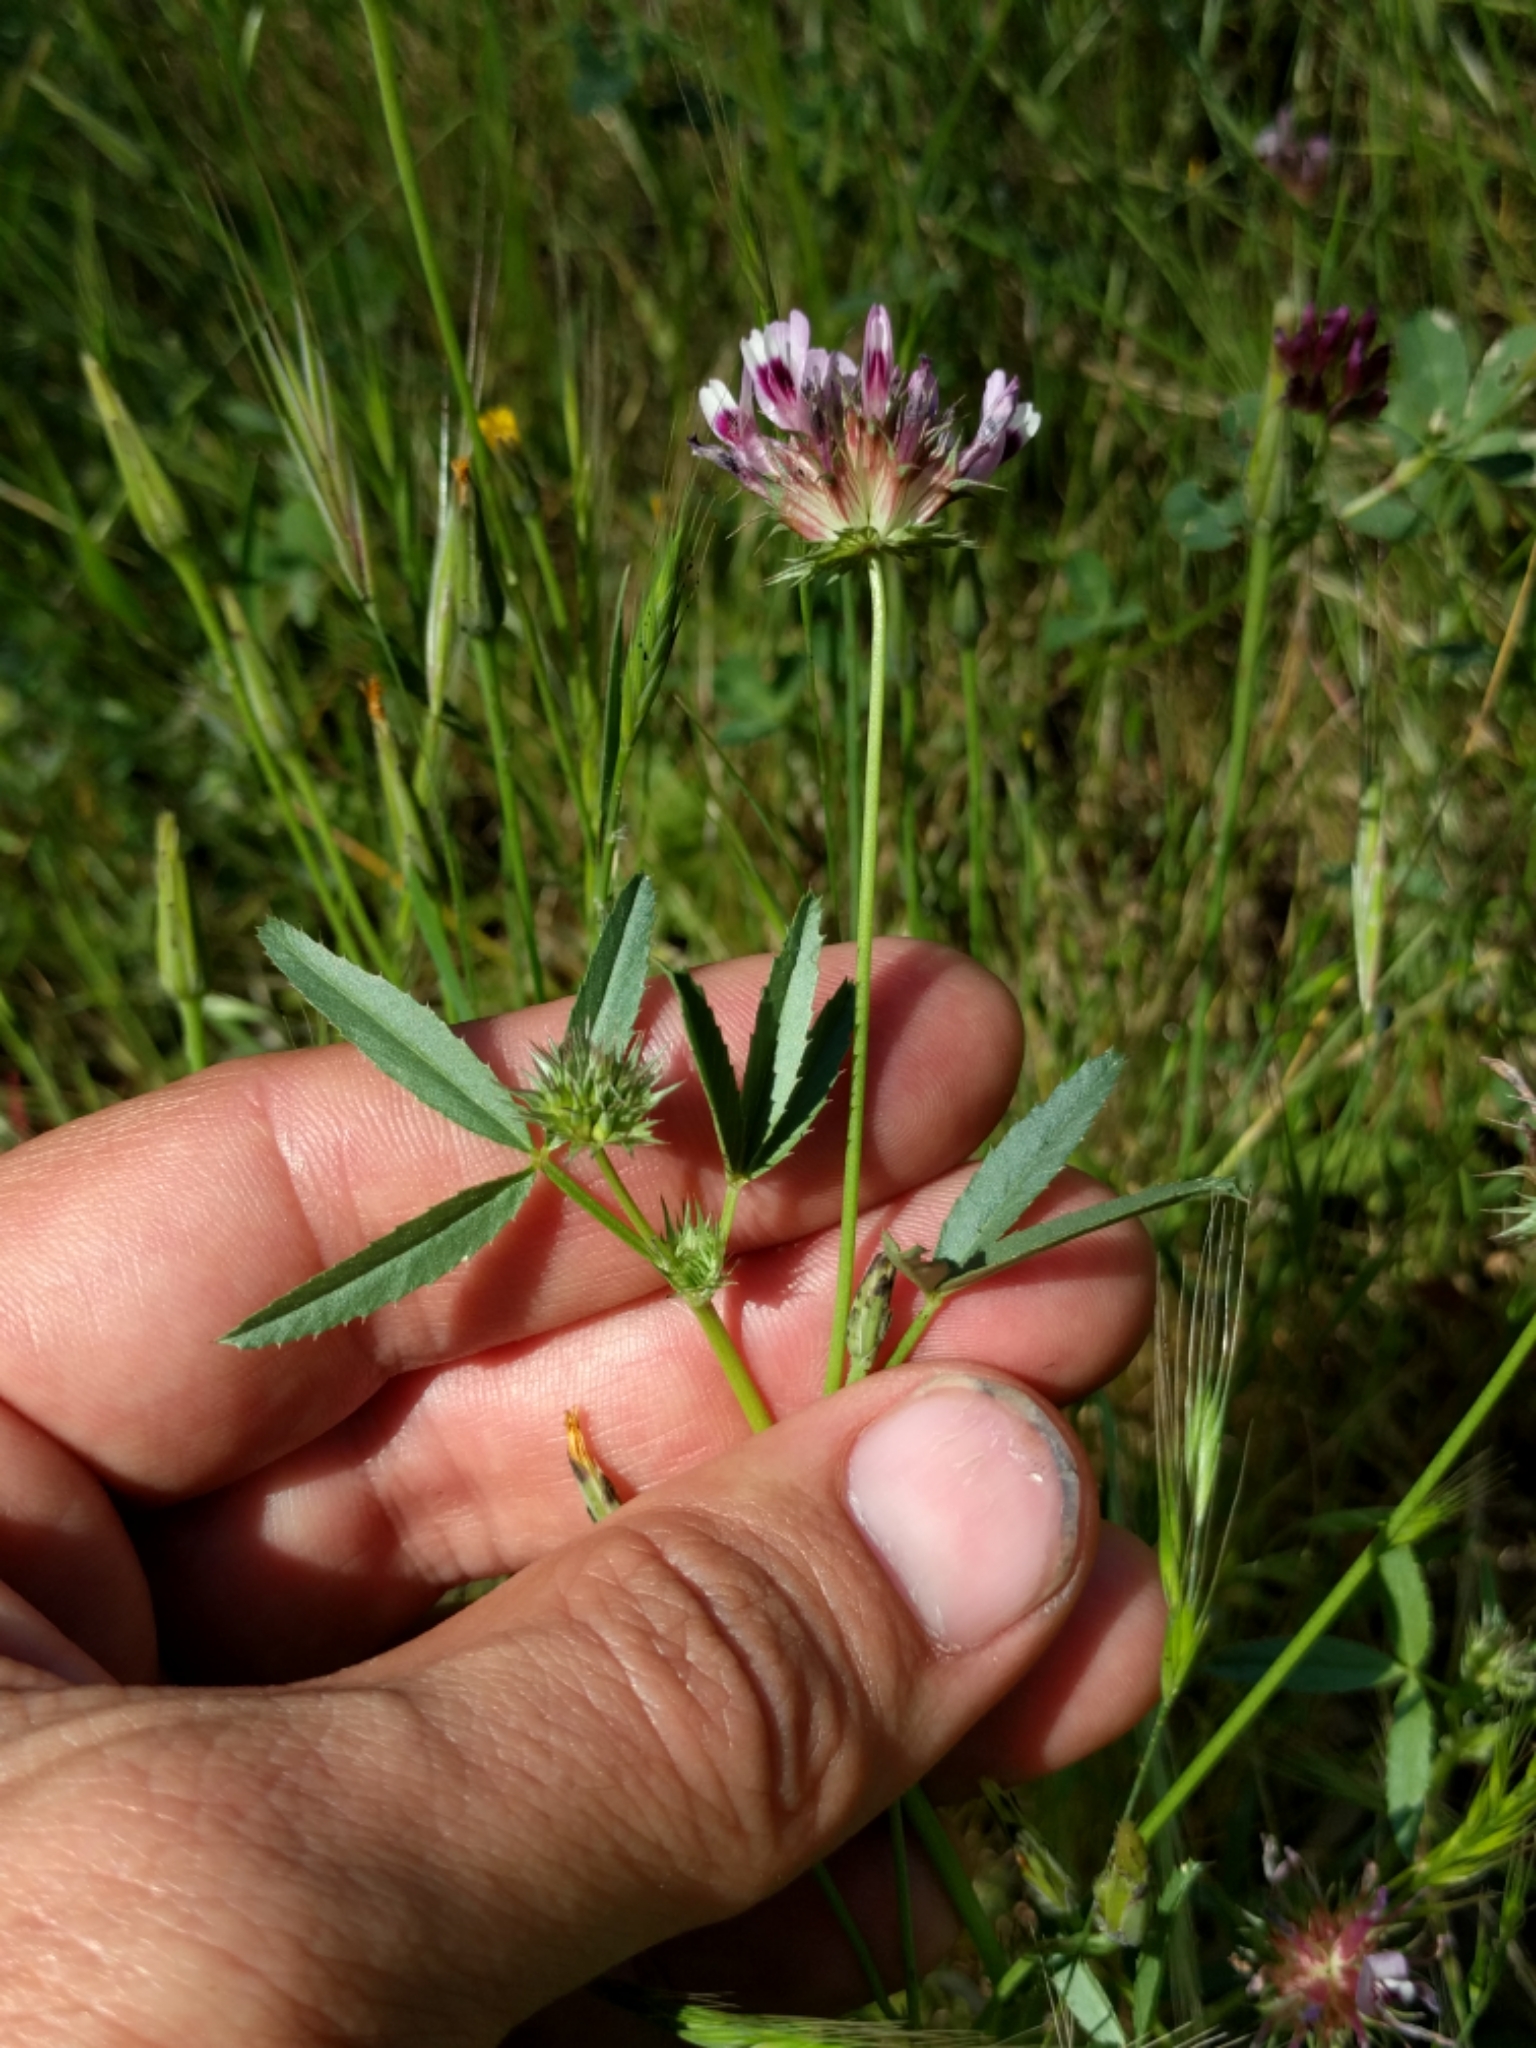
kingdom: Plantae
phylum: Tracheophyta
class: Magnoliopsida
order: Fabales
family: Fabaceae
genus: Trifolium
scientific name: Trifolium willdenovii
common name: Tomcat clover
